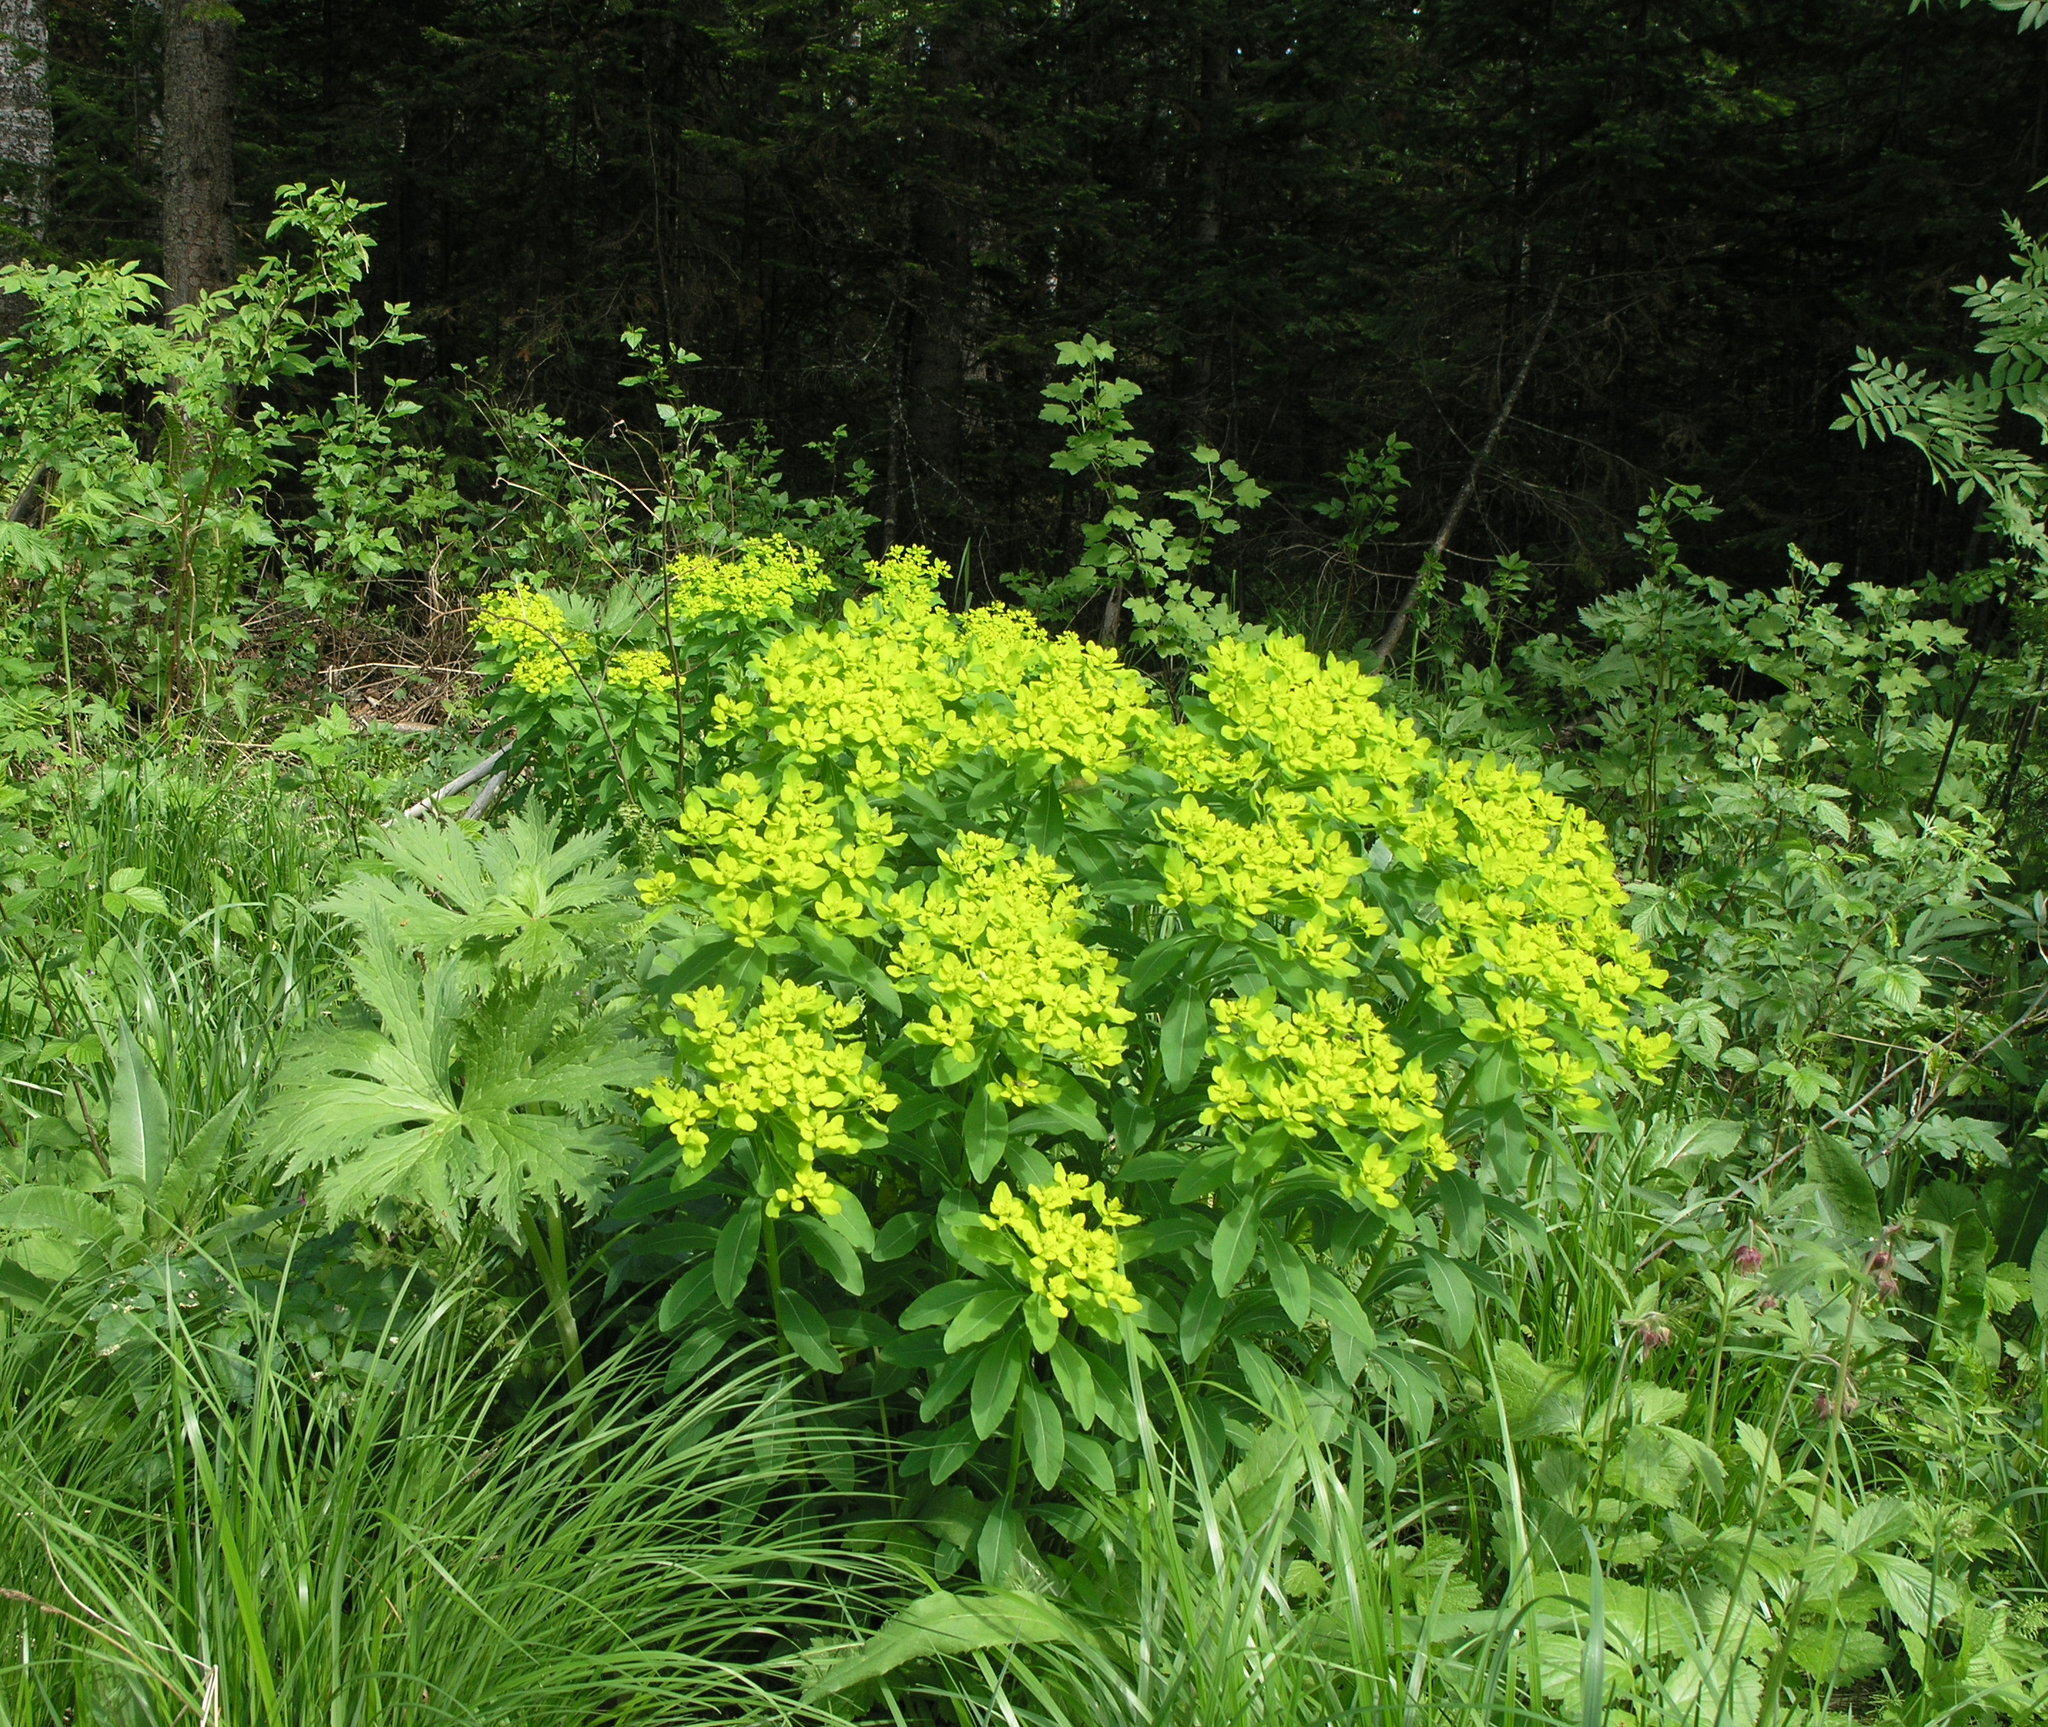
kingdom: Plantae
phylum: Tracheophyta
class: Magnoliopsida
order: Malpighiales
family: Euphorbiaceae
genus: Euphorbia
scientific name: Euphorbia pilosa
